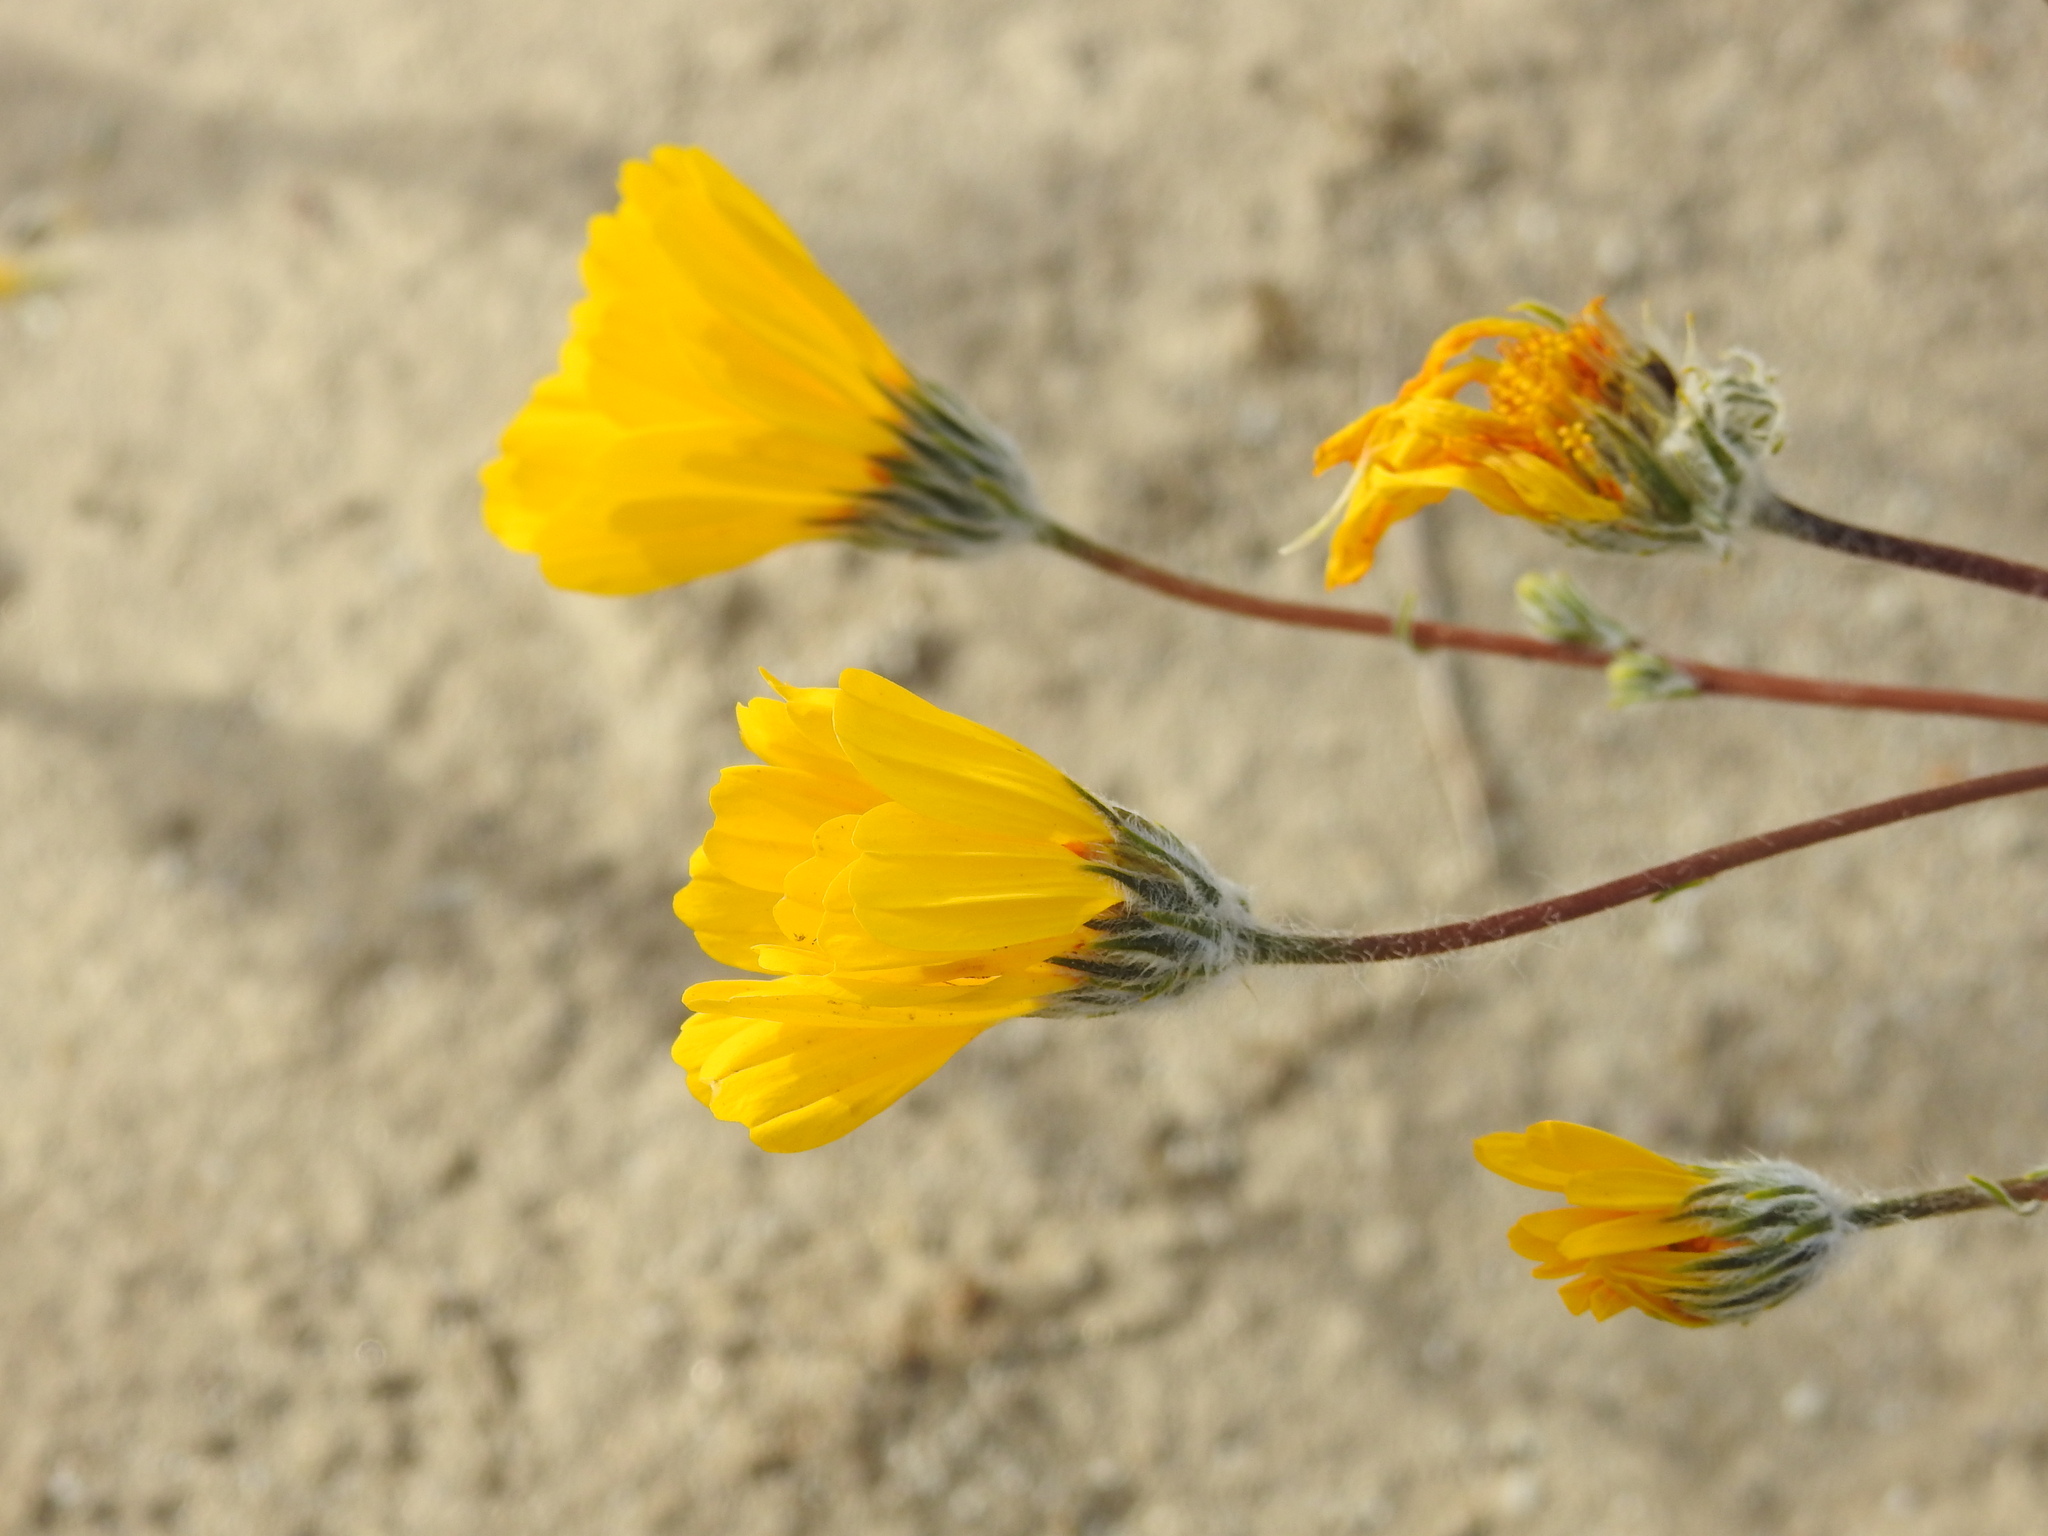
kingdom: Plantae
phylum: Tracheophyta
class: Magnoliopsida
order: Asterales
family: Asteraceae
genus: Geraea
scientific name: Geraea canescens
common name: Desert-gold
